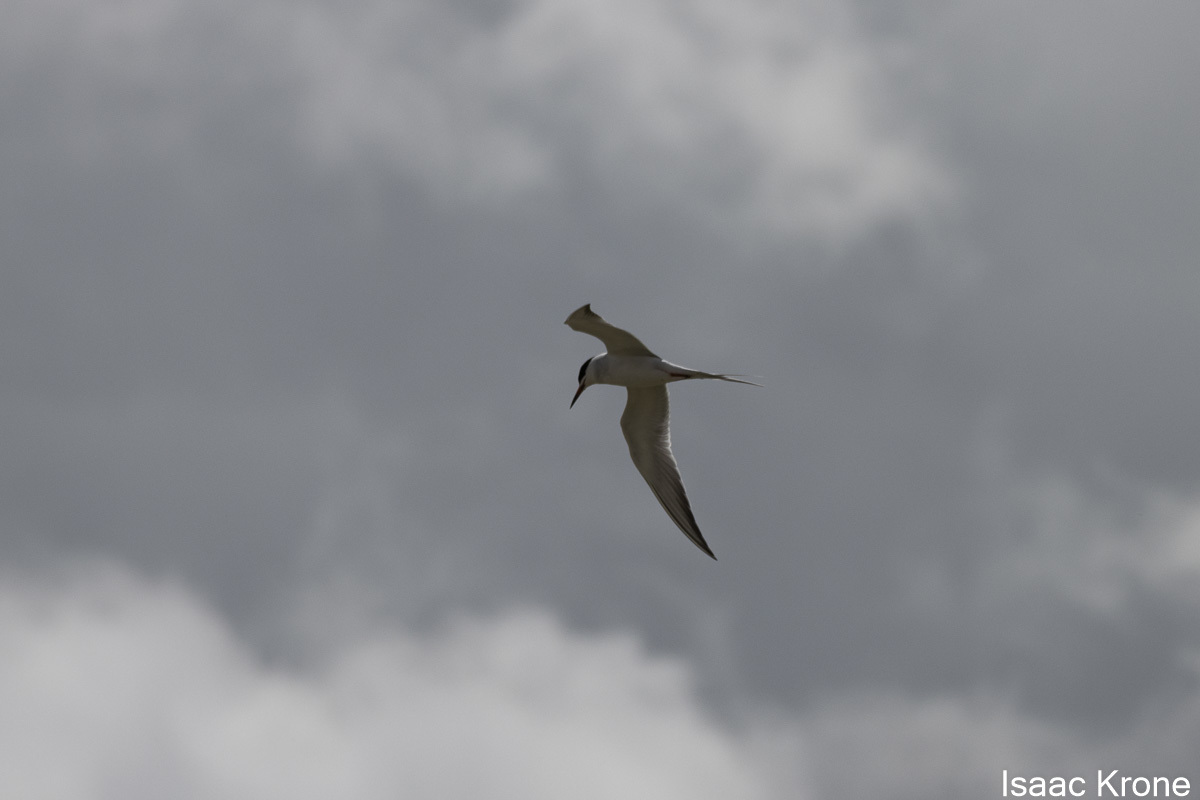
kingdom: Animalia
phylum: Chordata
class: Aves
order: Charadriiformes
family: Laridae
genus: Sterna
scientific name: Sterna forsteri
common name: Forster's tern
